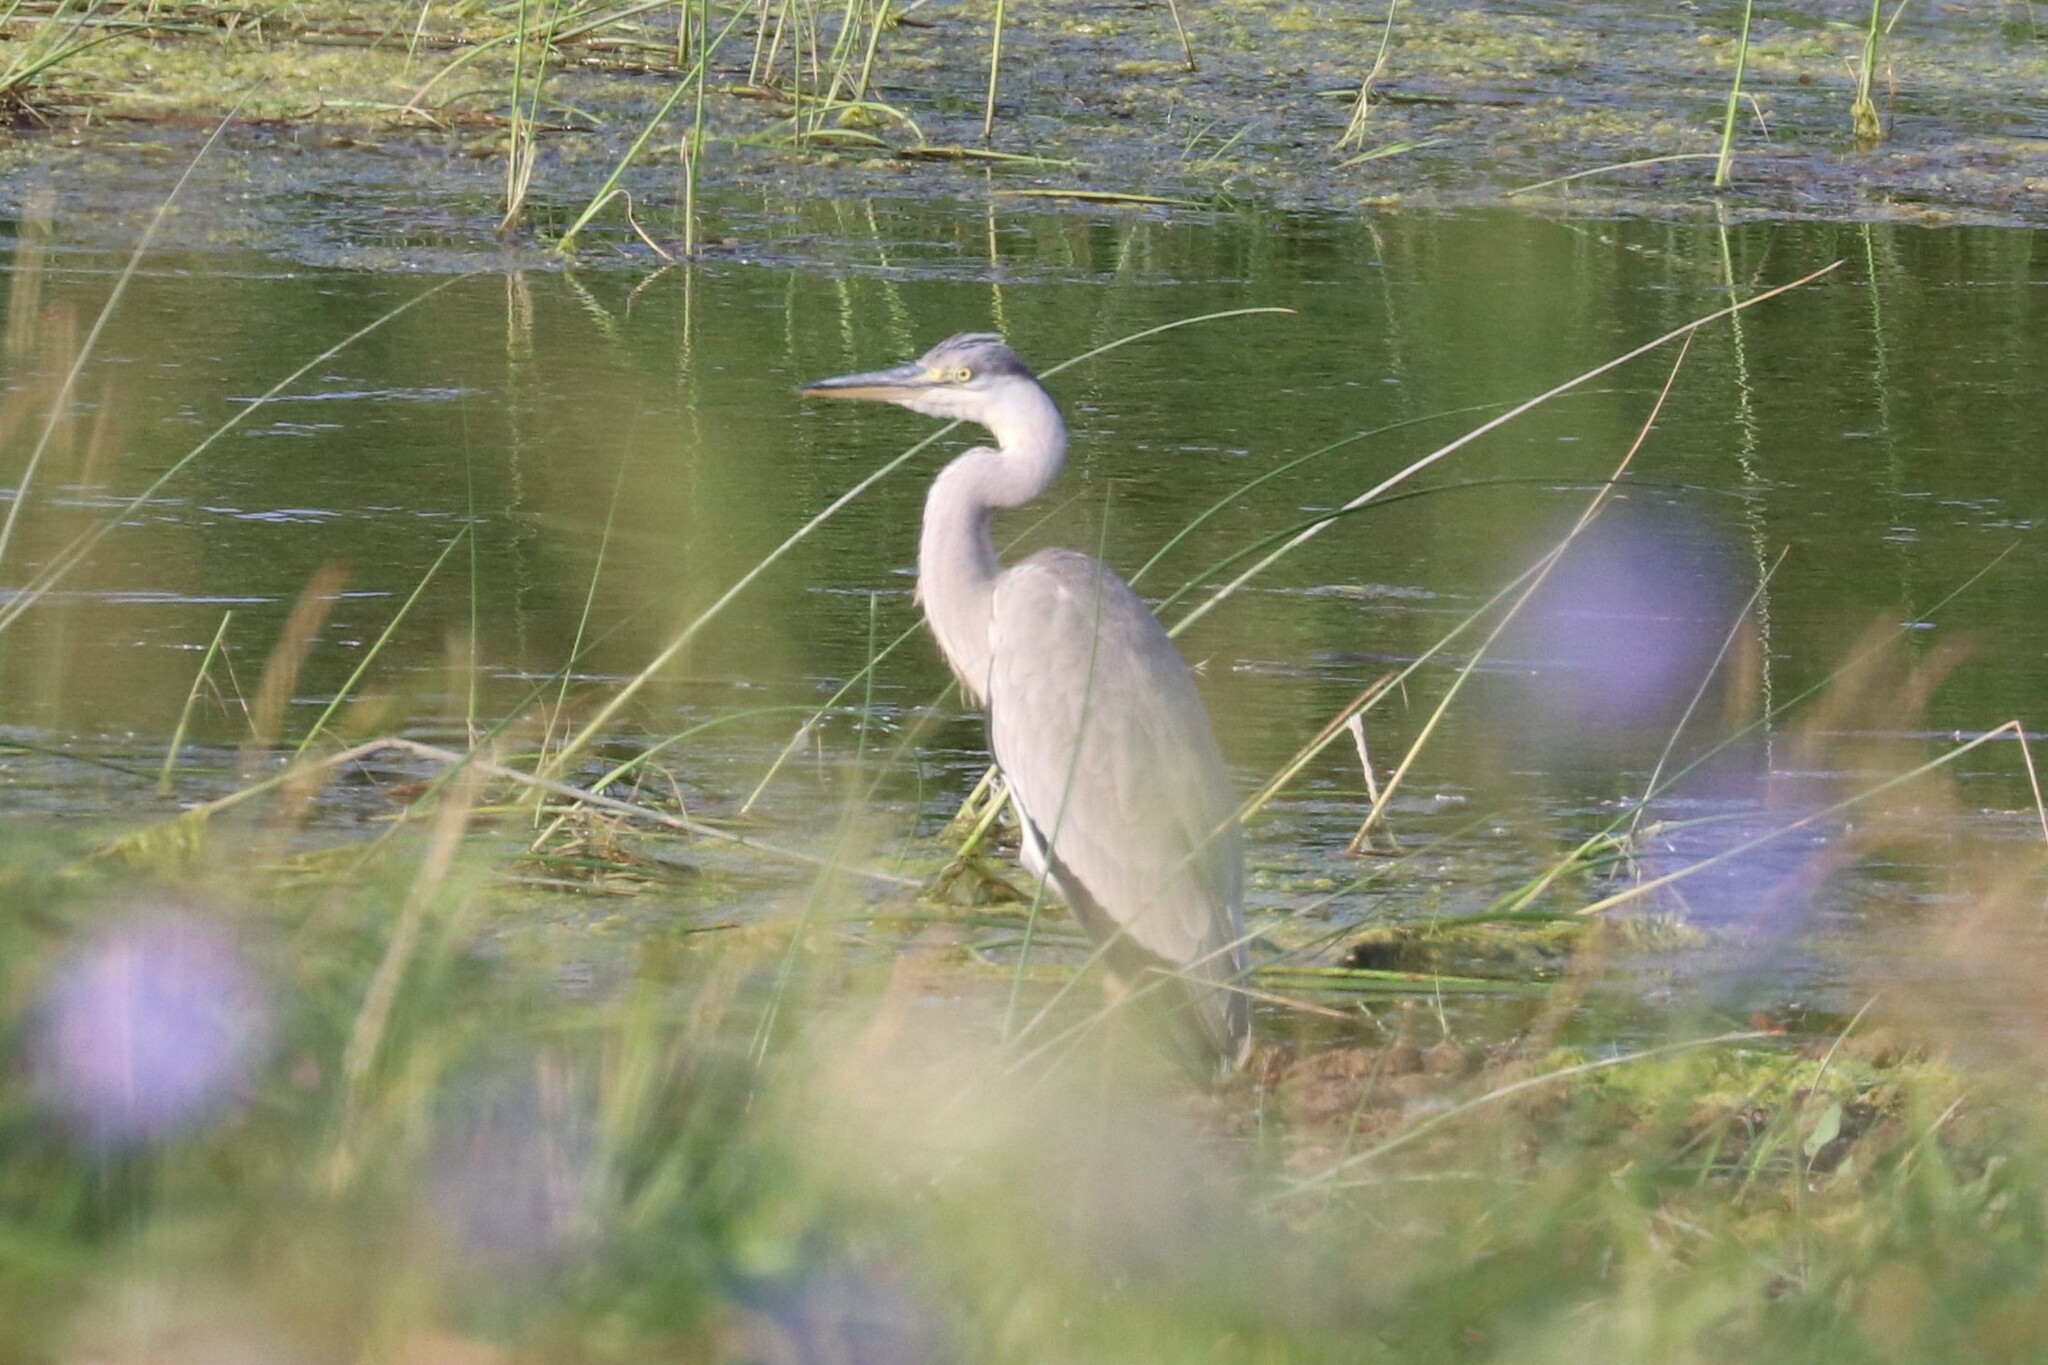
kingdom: Animalia
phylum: Chordata
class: Aves
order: Pelecaniformes
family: Ardeidae
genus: Ardea
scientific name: Ardea cinerea
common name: Grey heron
